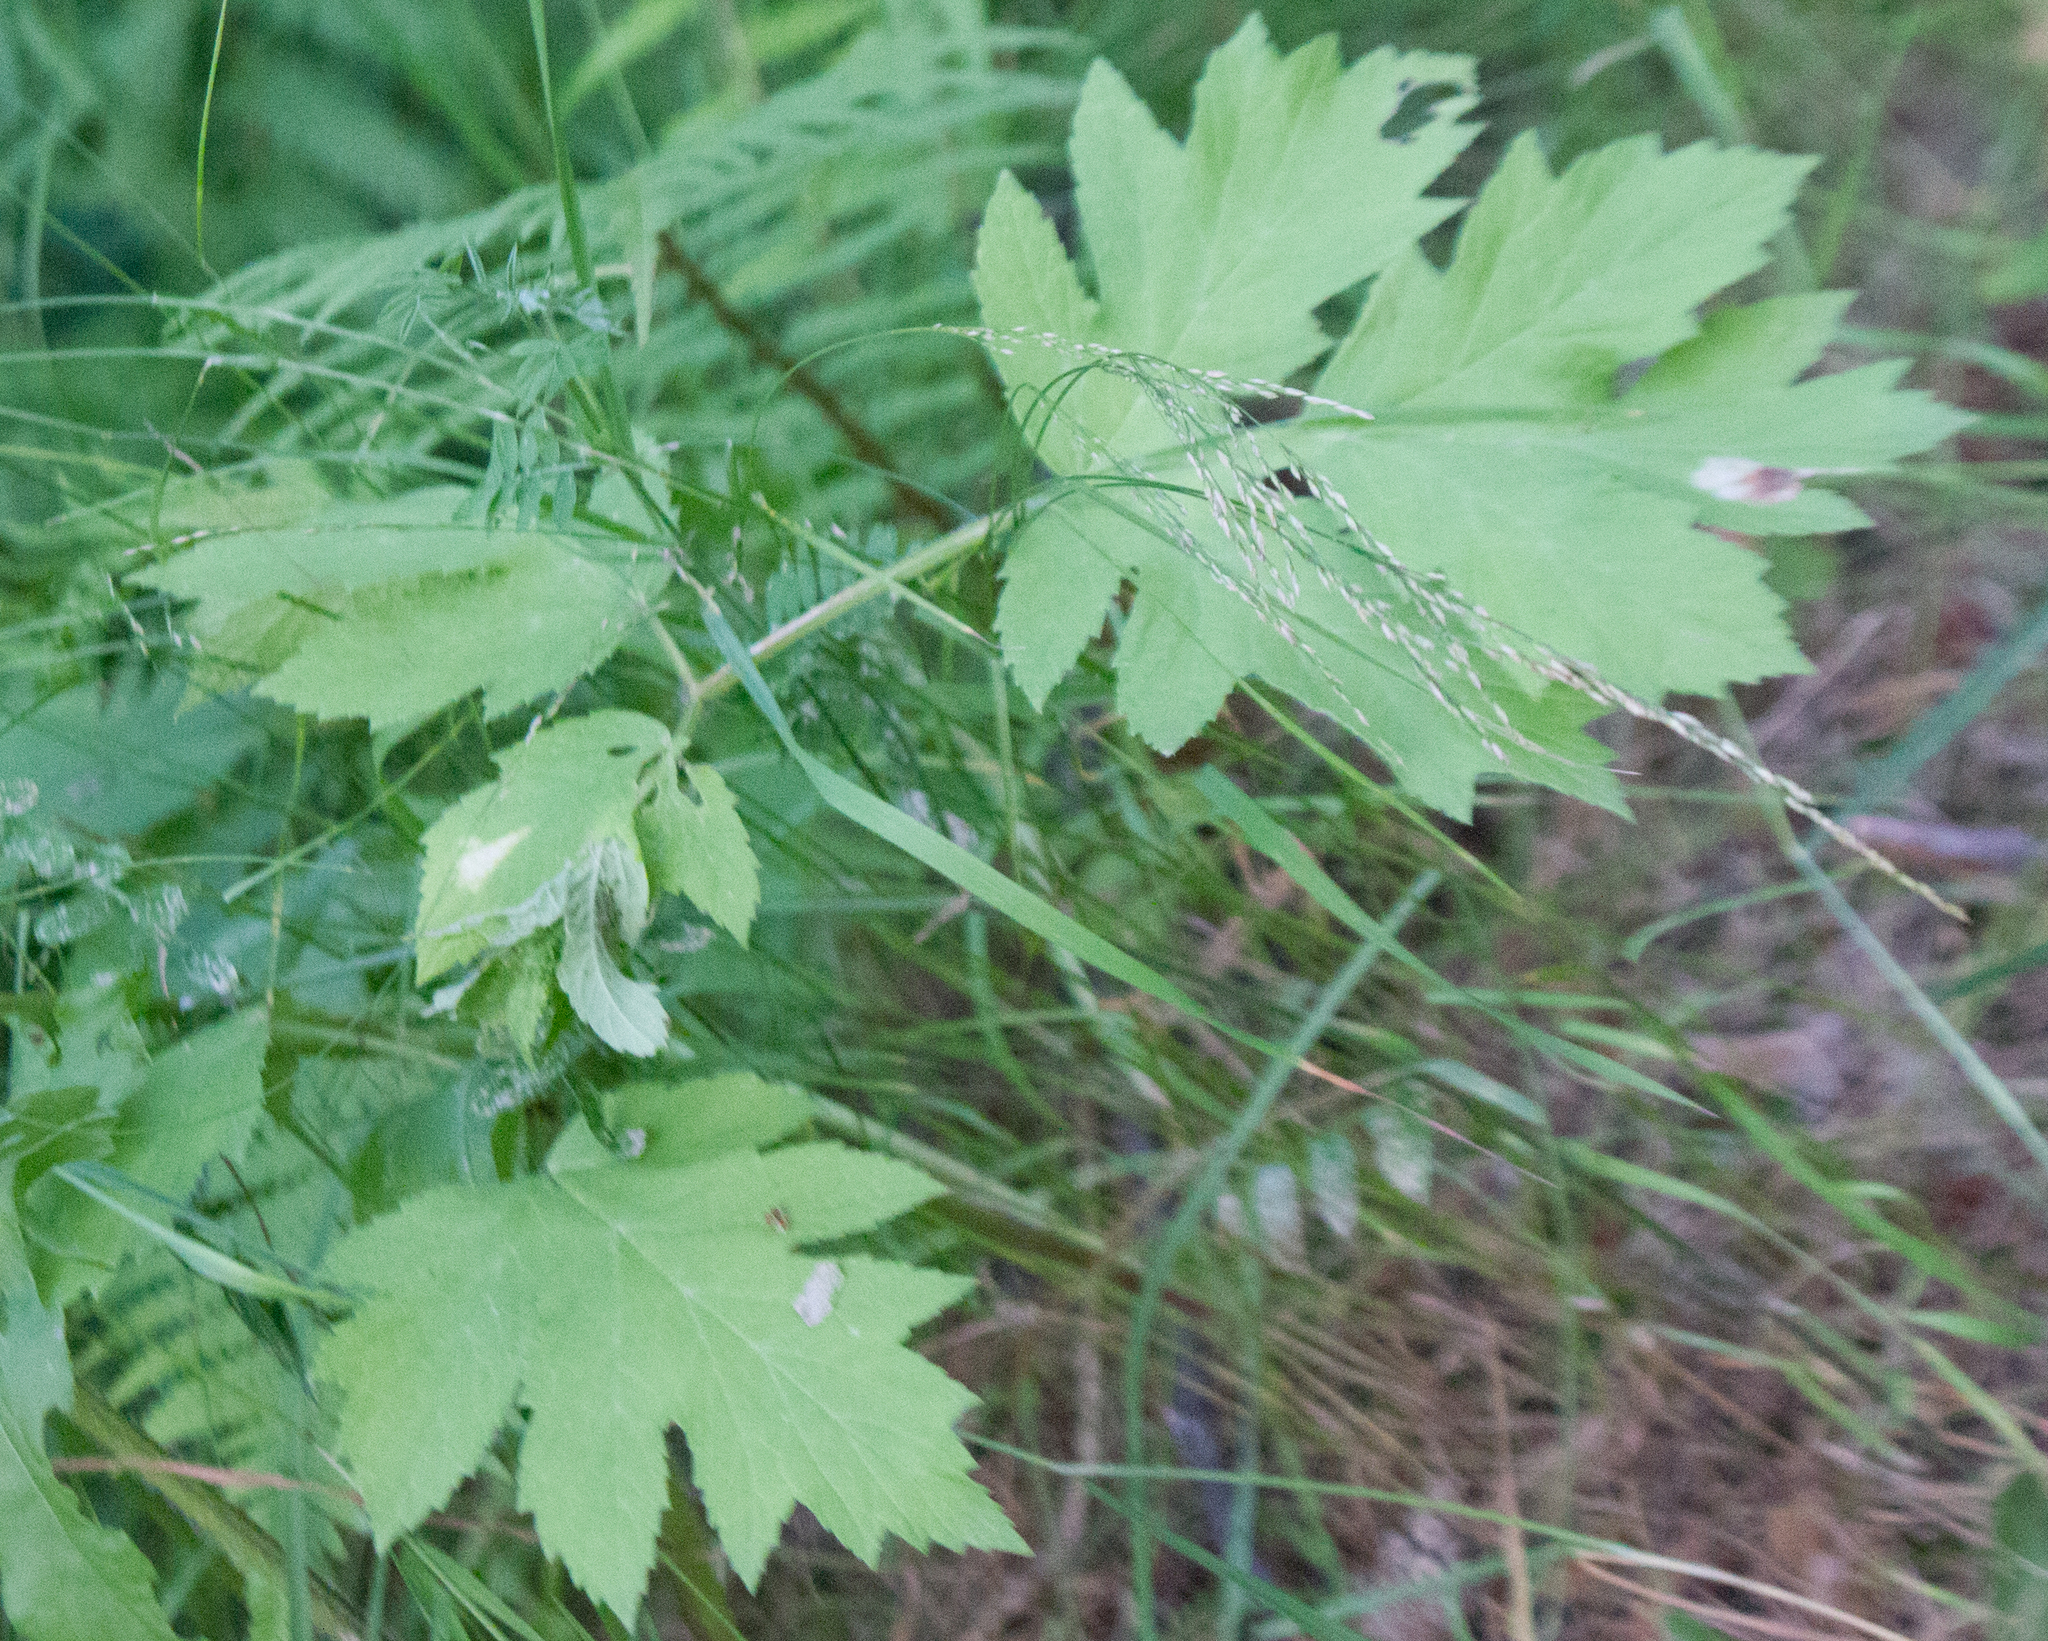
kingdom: Plantae
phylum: Tracheophyta
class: Magnoliopsida
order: Apiales
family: Apiaceae
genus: Heracleum
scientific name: Heracleum sphondylium
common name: Hogweed
